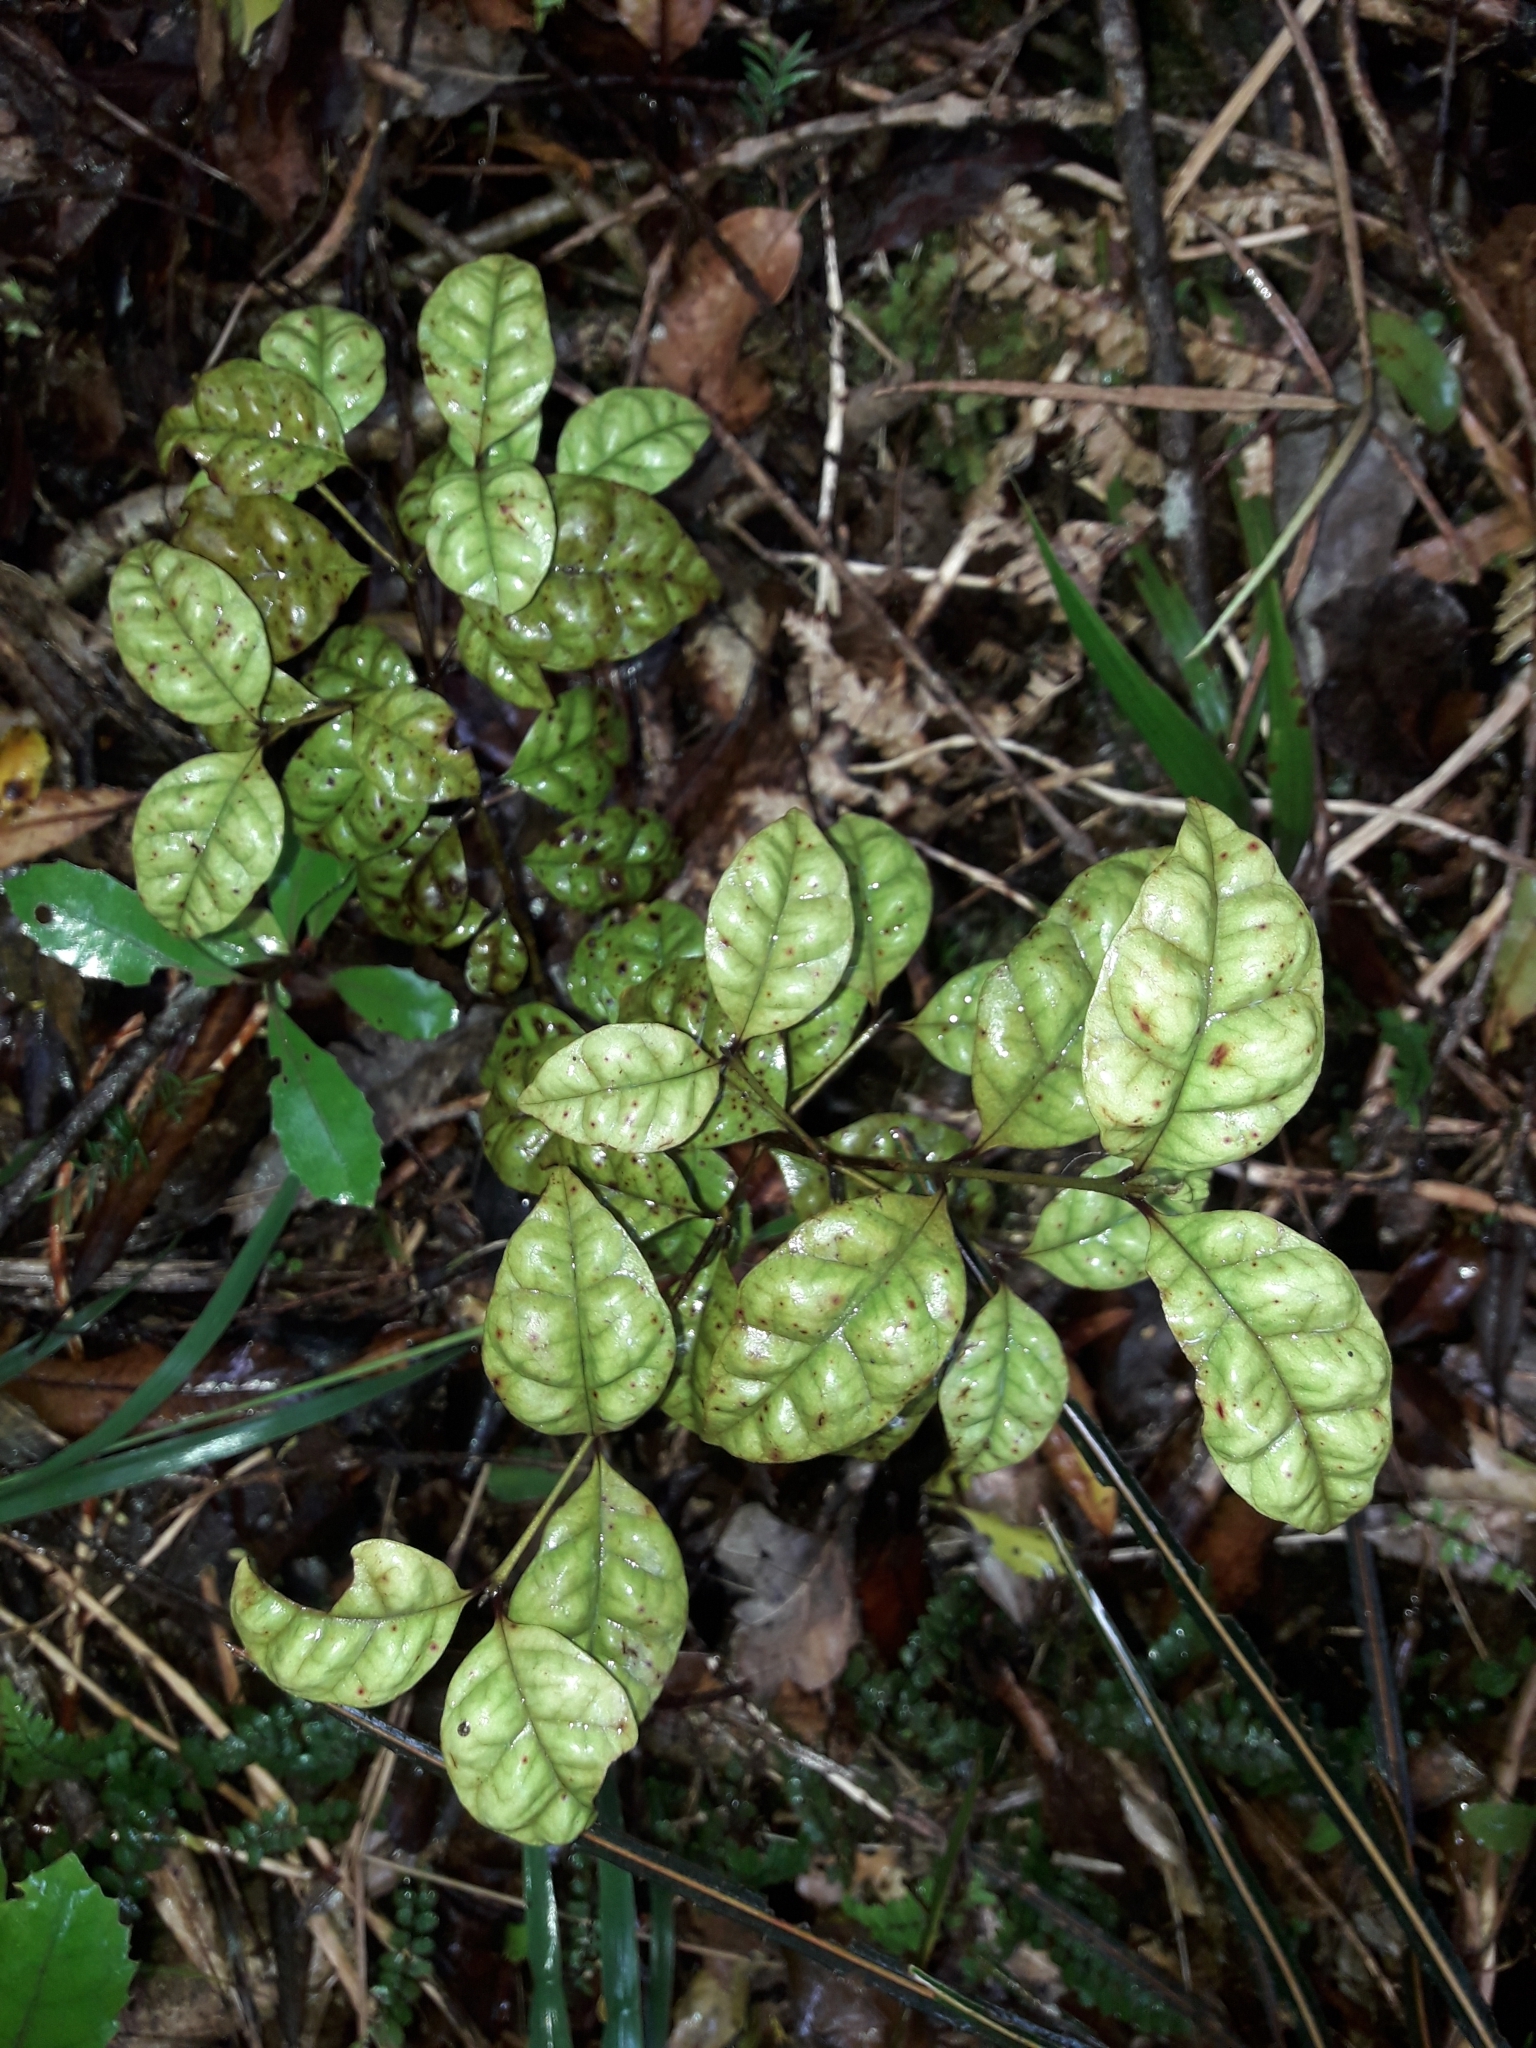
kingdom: Plantae
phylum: Tracheophyta
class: Magnoliopsida
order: Myrtales
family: Myrtaceae
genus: Lophomyrtus
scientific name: Lophomyrtus bullata
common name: Rama rama
